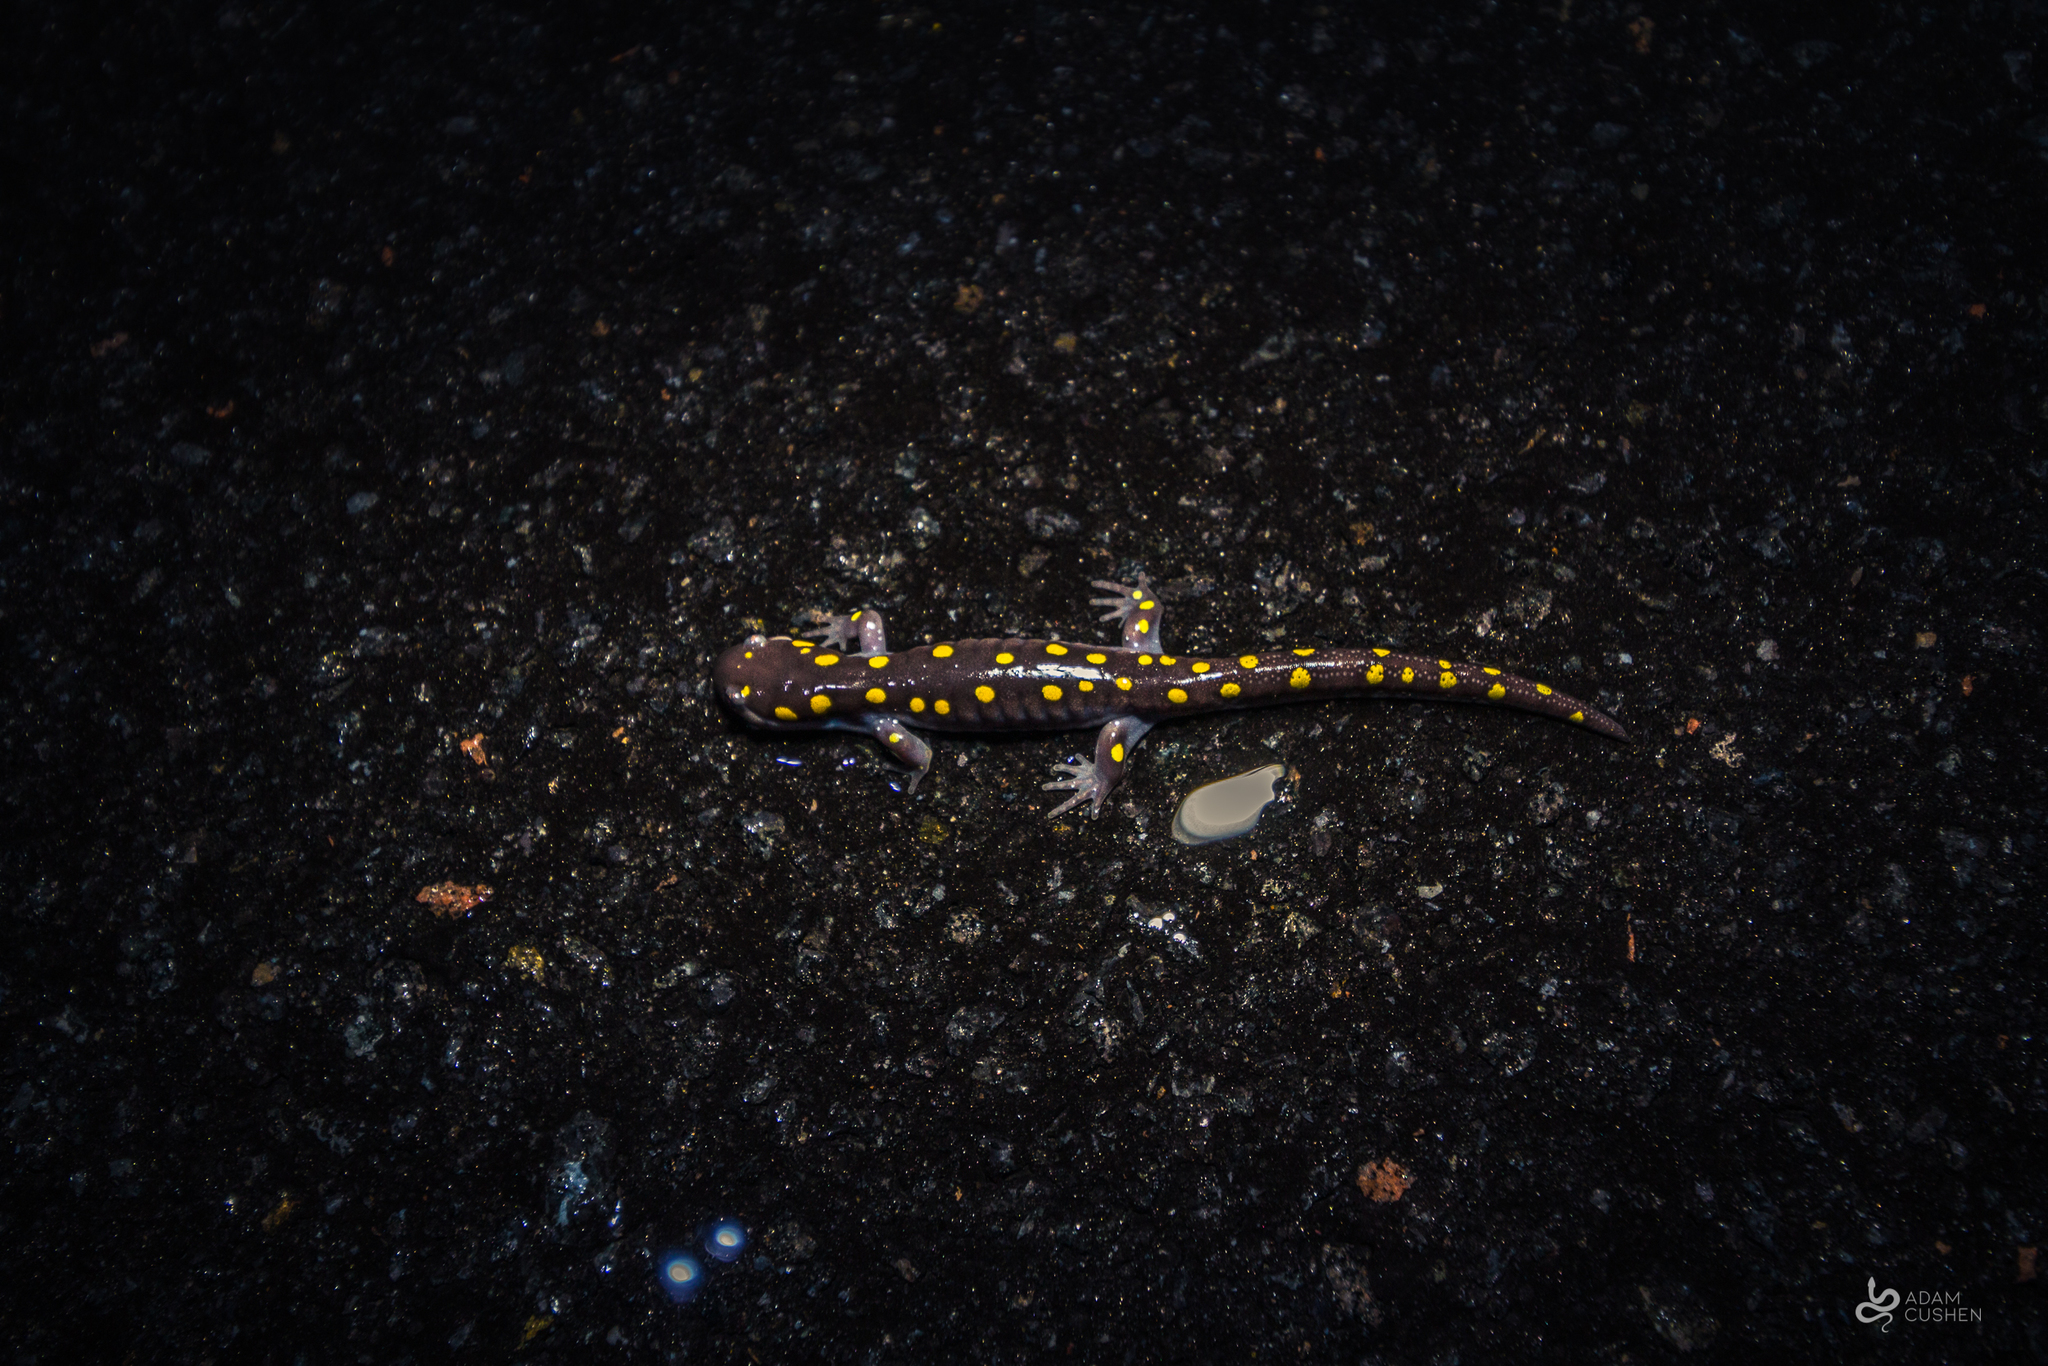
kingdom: Animalia
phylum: Chordata
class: Amphibia
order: Caudata
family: Ambystomatidae
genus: Ambystoma
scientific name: Ambystoma maculatum
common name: Spotted salamander
